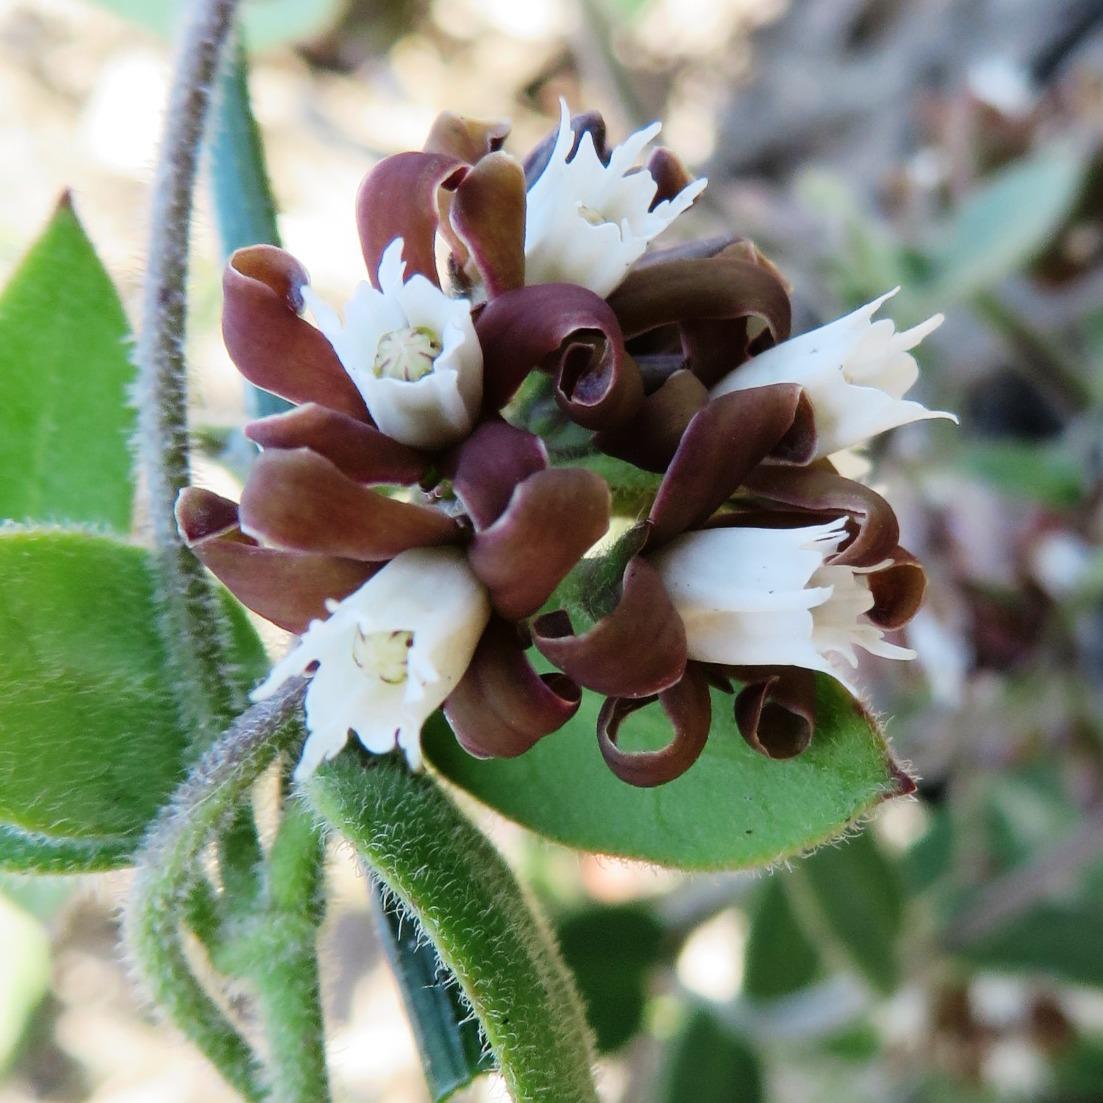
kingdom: Plantae
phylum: Tracheophyta
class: Magnoliopsida
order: Gentianales
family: Apocynaceae
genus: Cynanchum
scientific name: Cynanchum africanum
